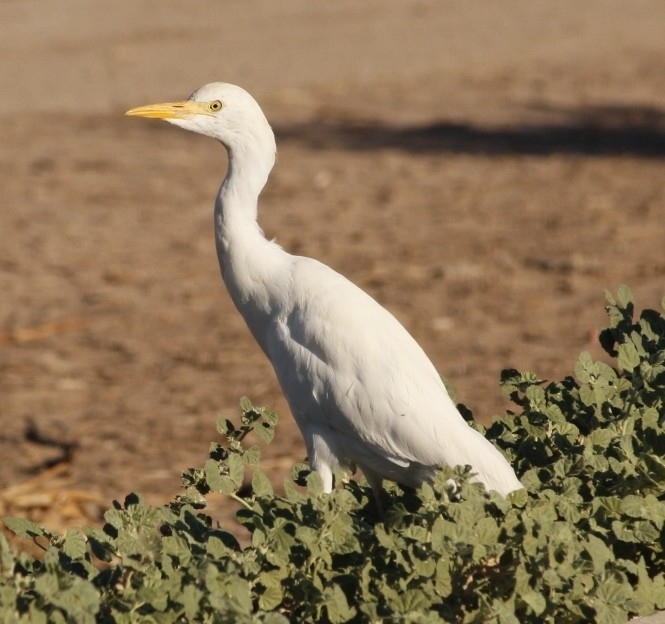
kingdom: Animalia
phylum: Chordata
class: Aves
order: Pelecaniformes
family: Ardeidae
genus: Bubulcus
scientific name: Bubulcus ibis
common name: Cattle egret
